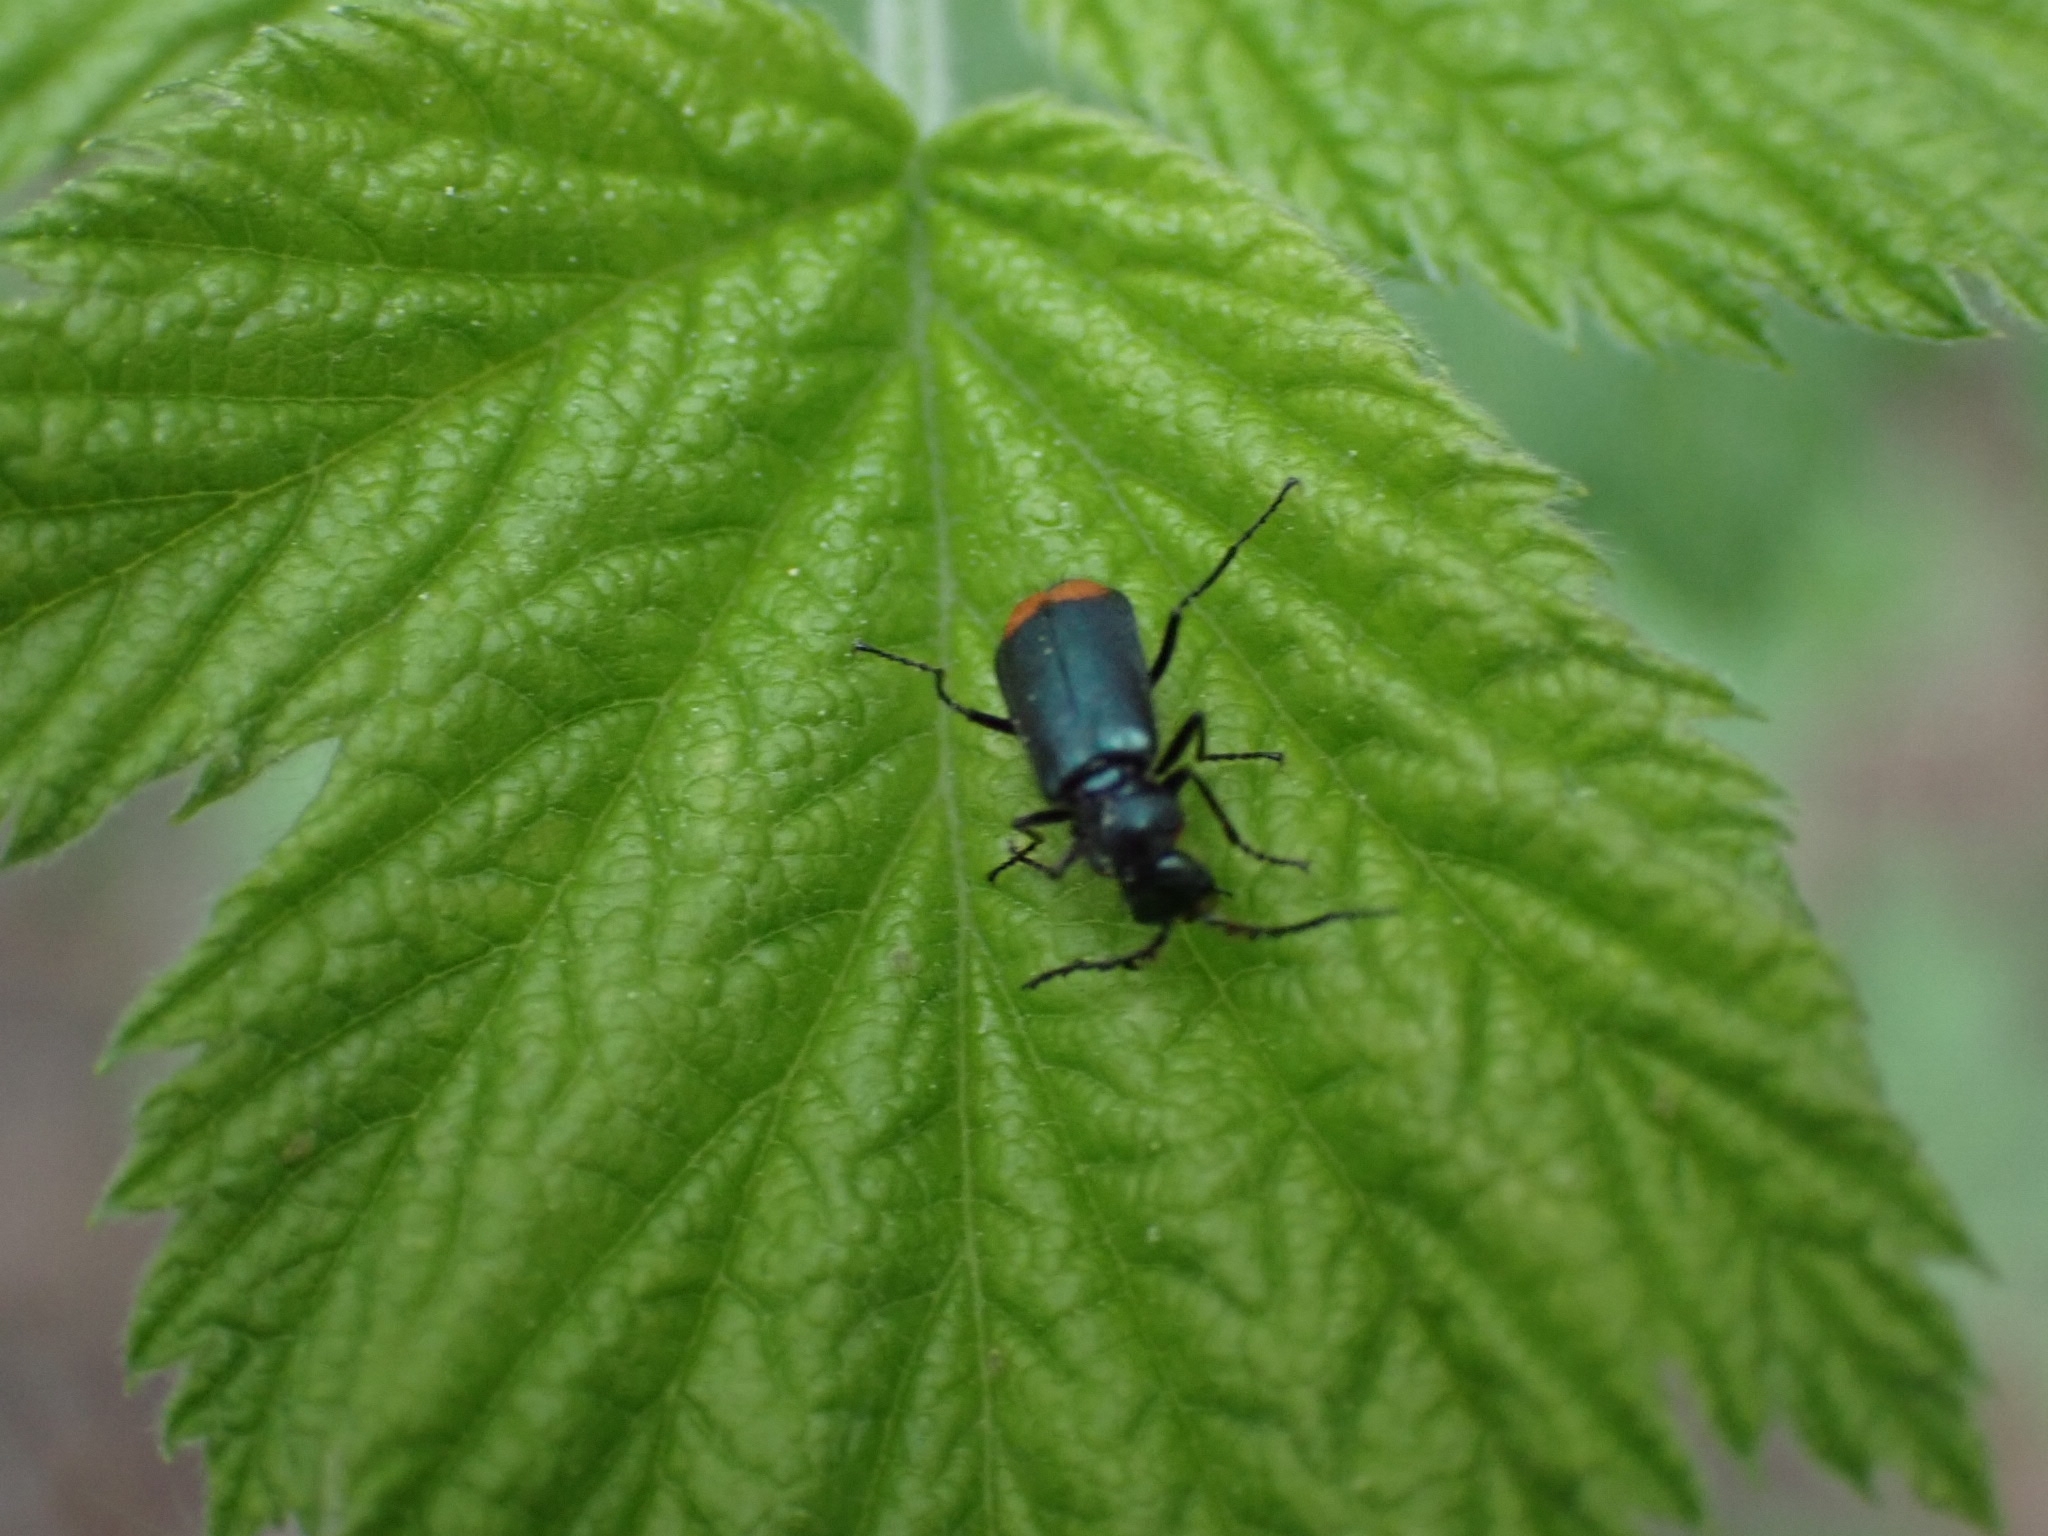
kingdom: Animalia
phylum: Arthropoda
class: Insecta
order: Coleoptera
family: Melyridae
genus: Malachius
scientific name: Malachius bipustulatus
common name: Malachite beetle
